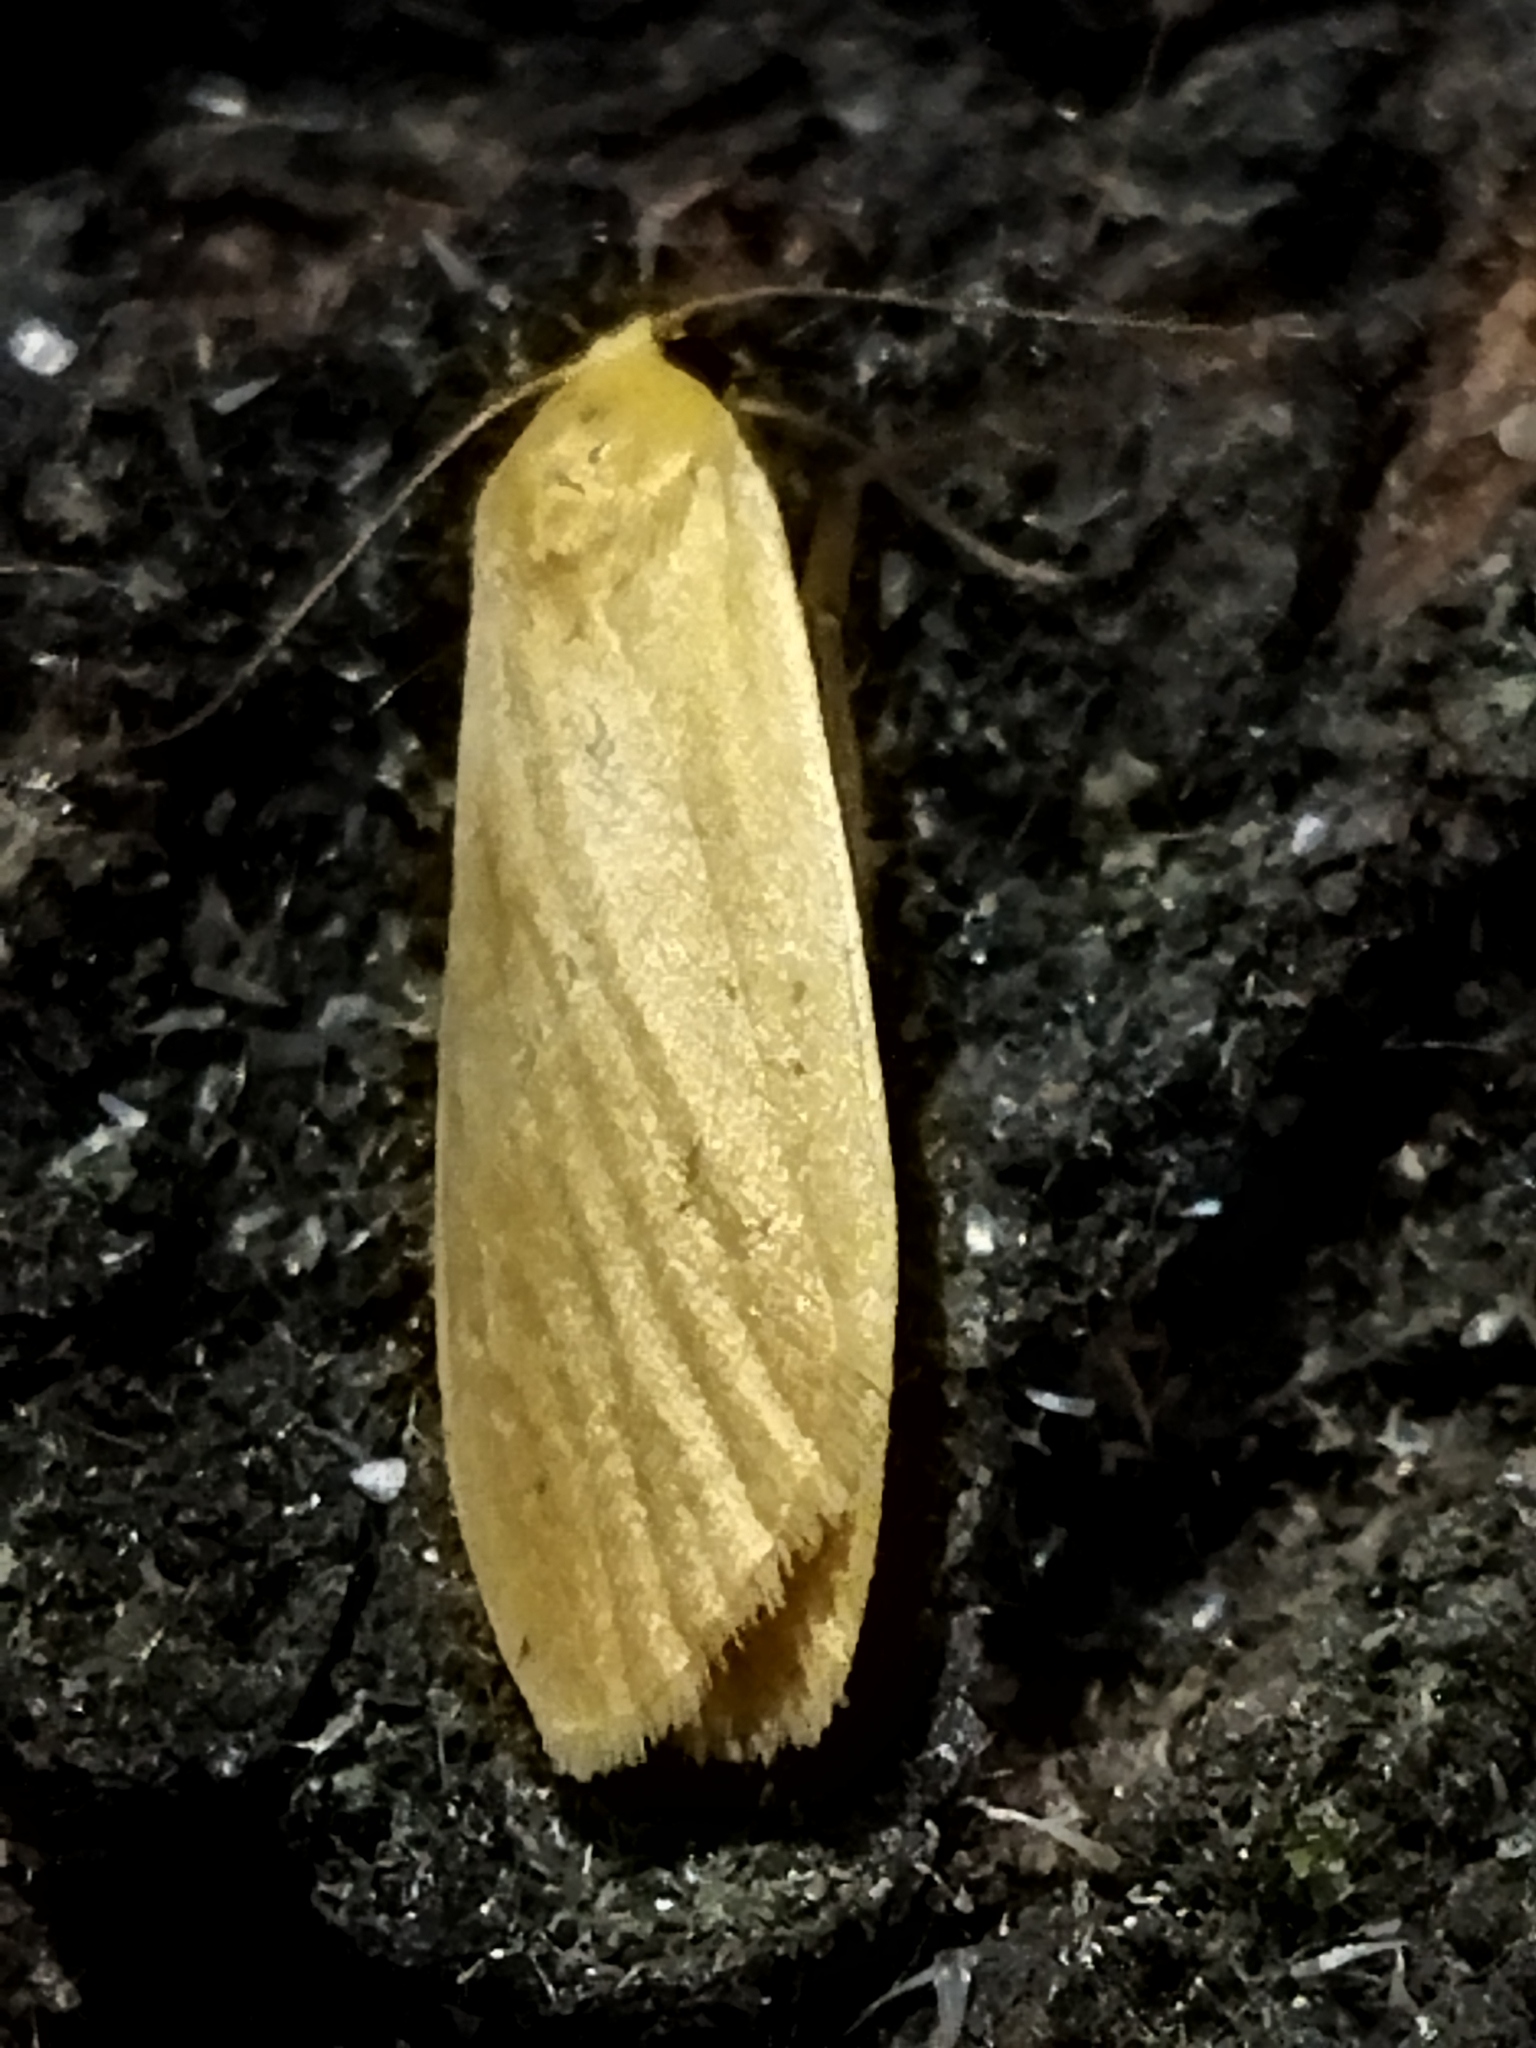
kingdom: Animalia
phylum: Arthropoda
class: Insecta
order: Lepidoptera
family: Erebidae
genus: Wittia
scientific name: Wittia sororcula
